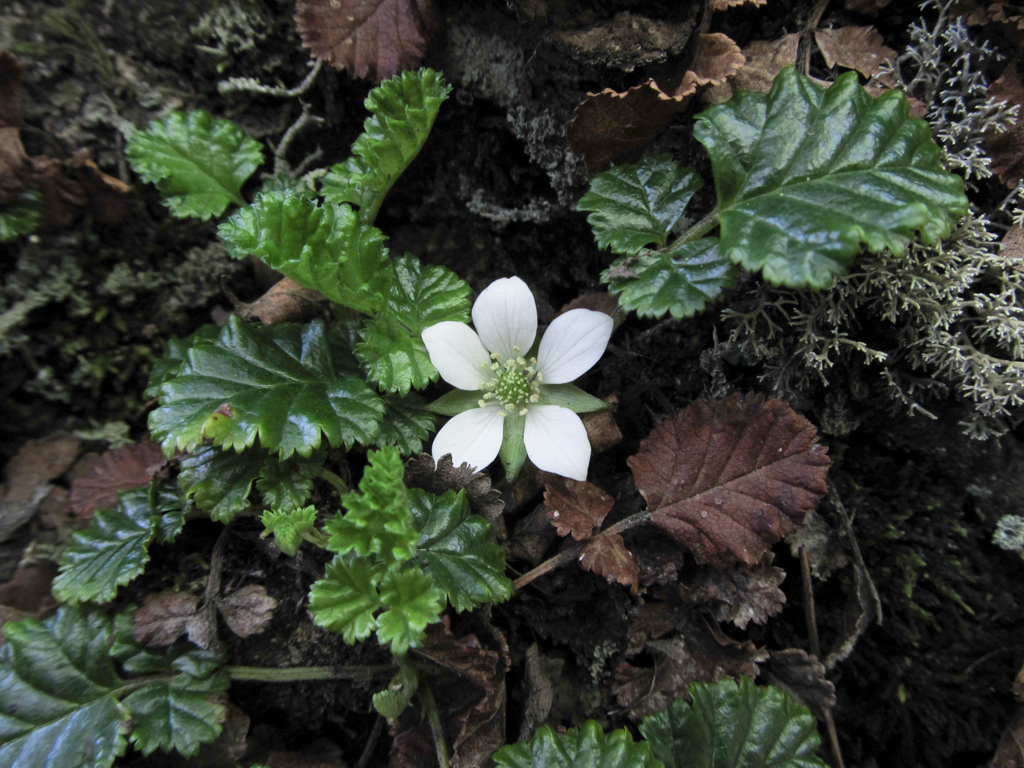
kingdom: Plantae
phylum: Tracheophyta
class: Magnoliopsida
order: Rosales
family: Rosaceae
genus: Rubus
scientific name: Rubus geoides
